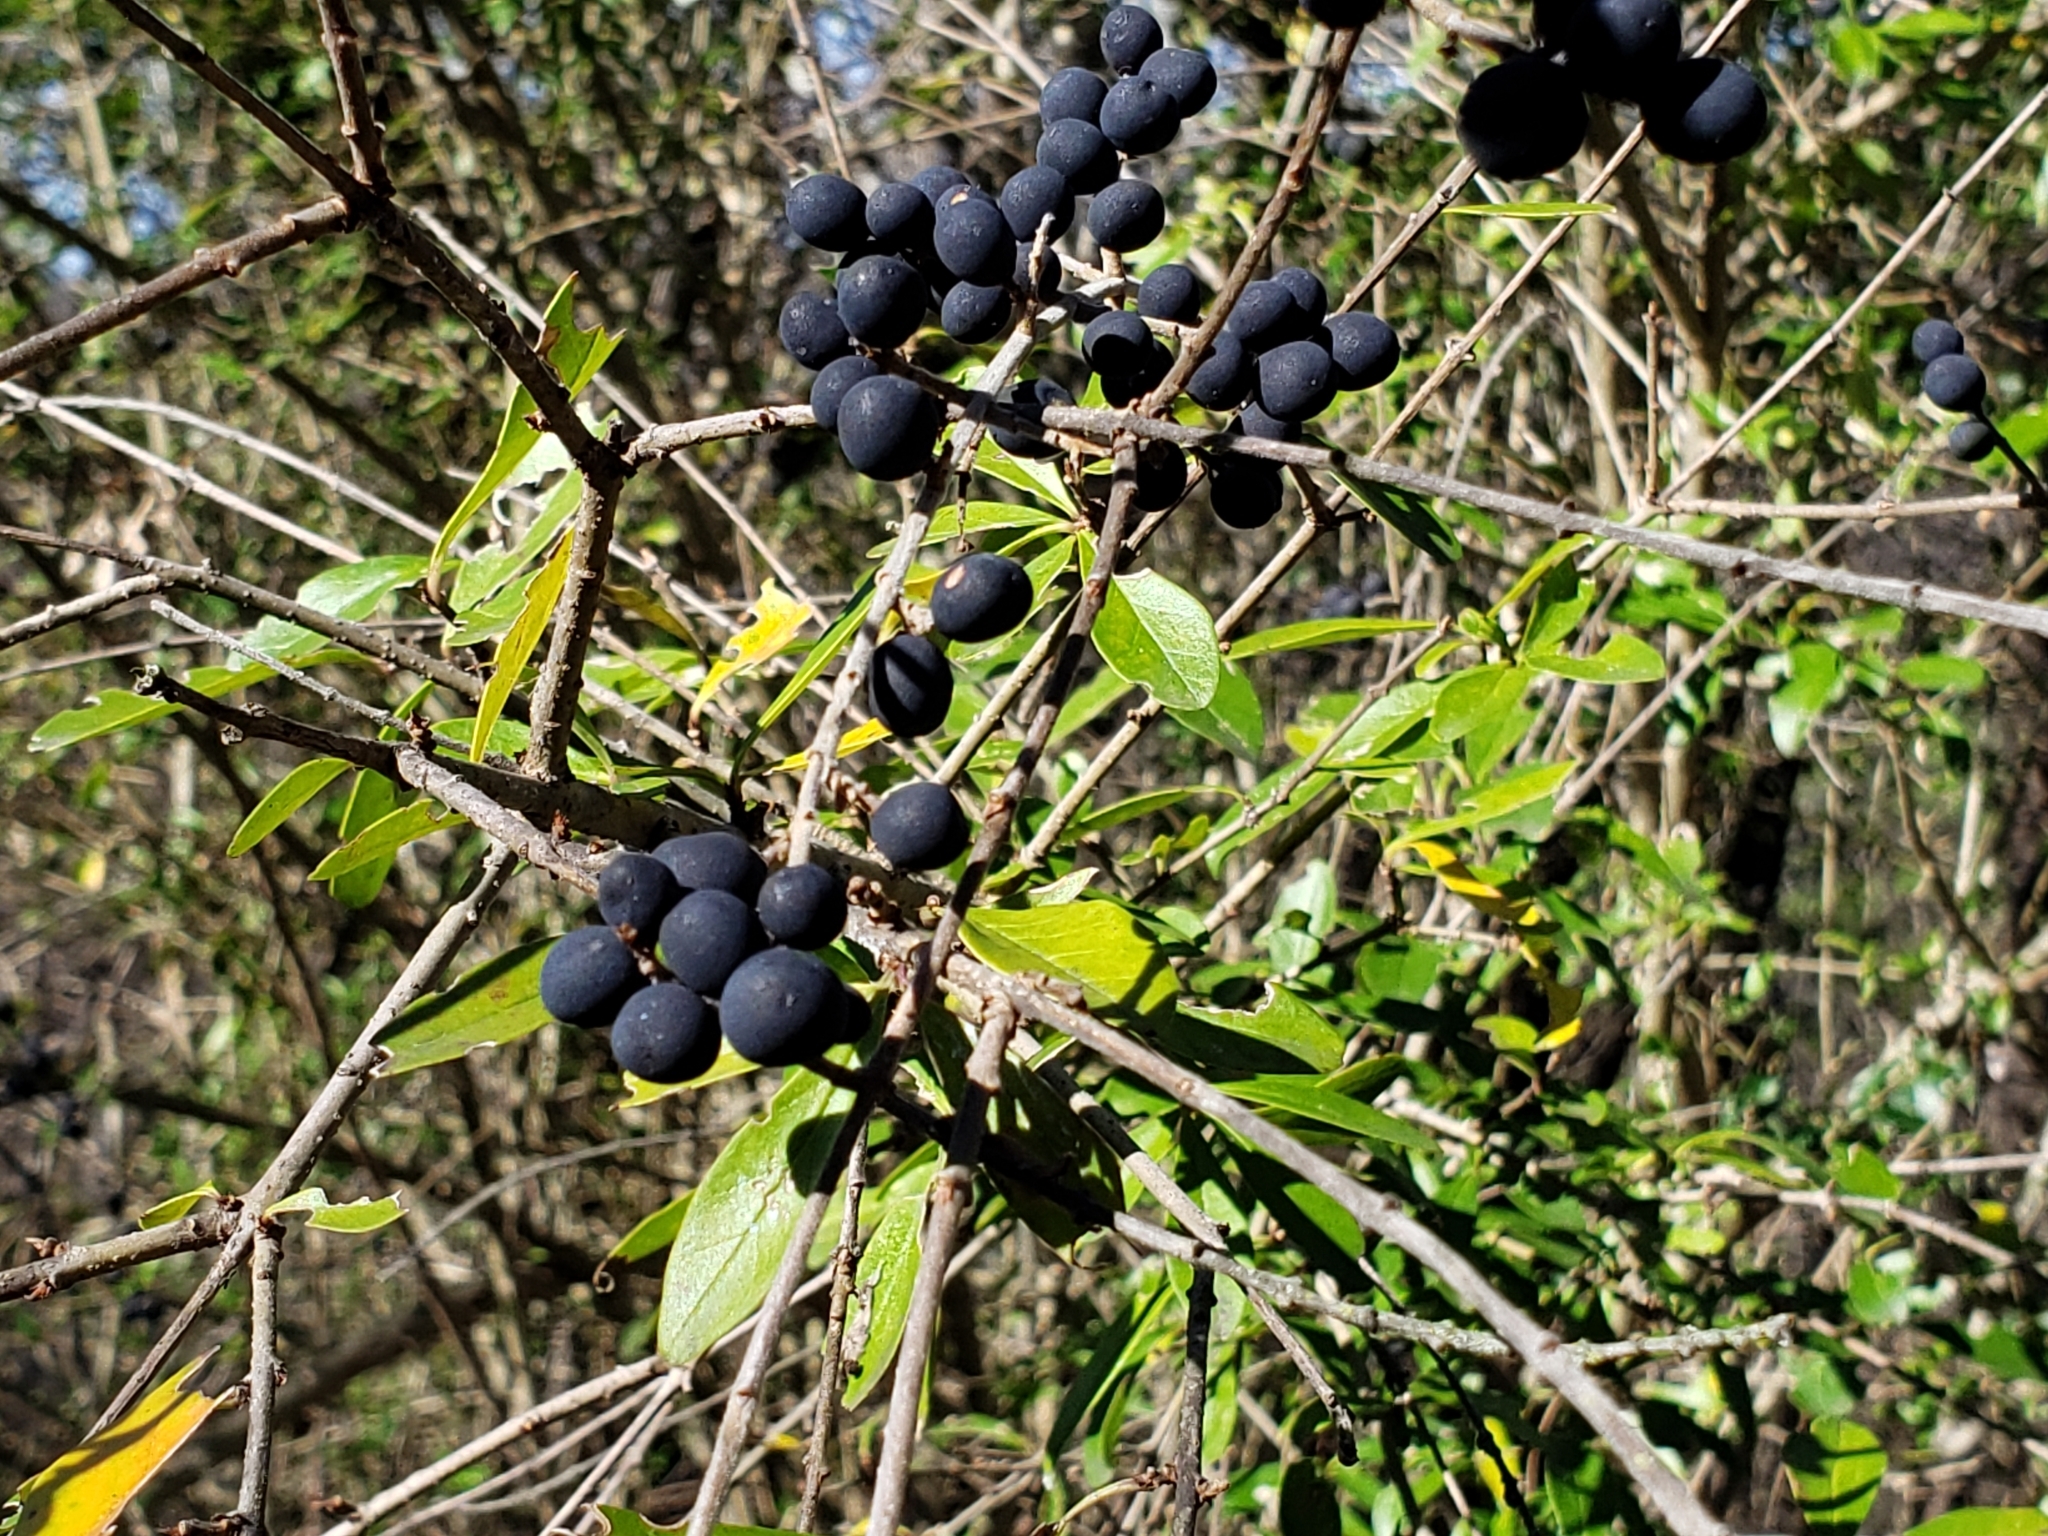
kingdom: Plantae
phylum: Tracheophyta
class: Magnoliopsida
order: Lamiales
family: Oleaceae
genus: Ligustrum
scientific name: Ligustrum quihoui
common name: Waxyleaf privet
